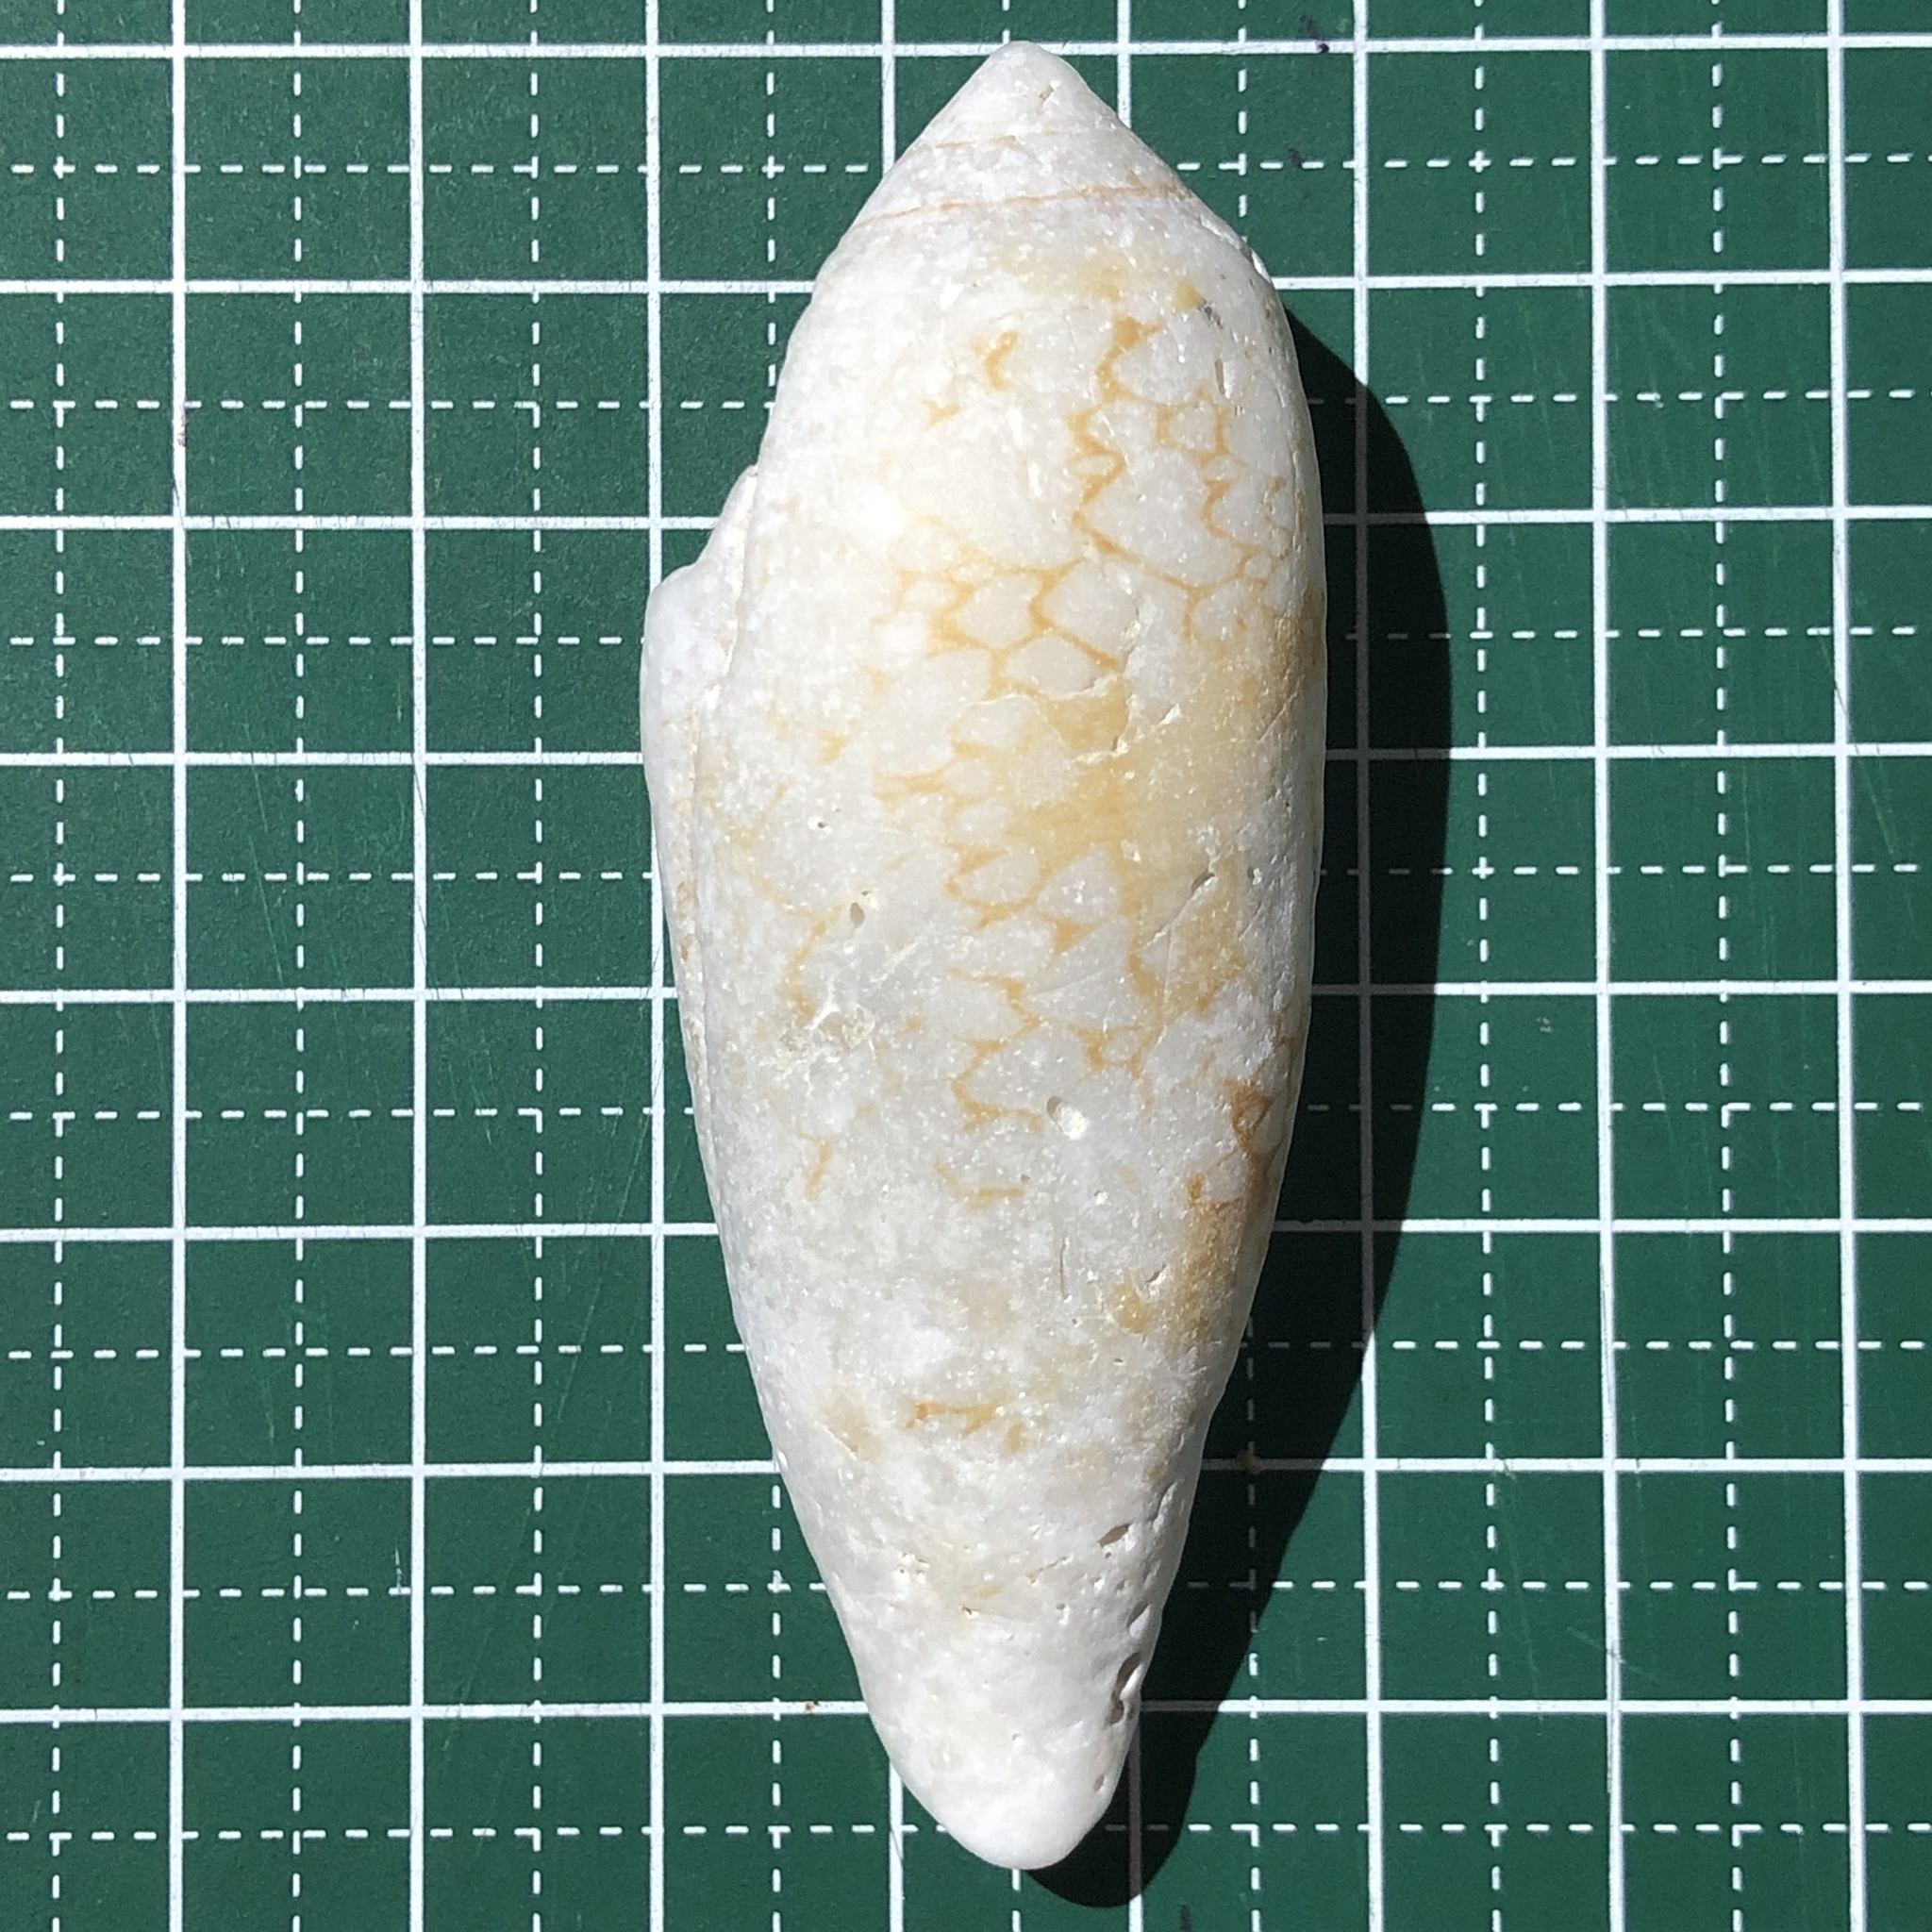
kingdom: Animalia
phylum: Mollusca
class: Gastropoda
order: Neogastropoda
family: Conidae
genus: Conus
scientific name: Conus aulicus
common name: Court cone
